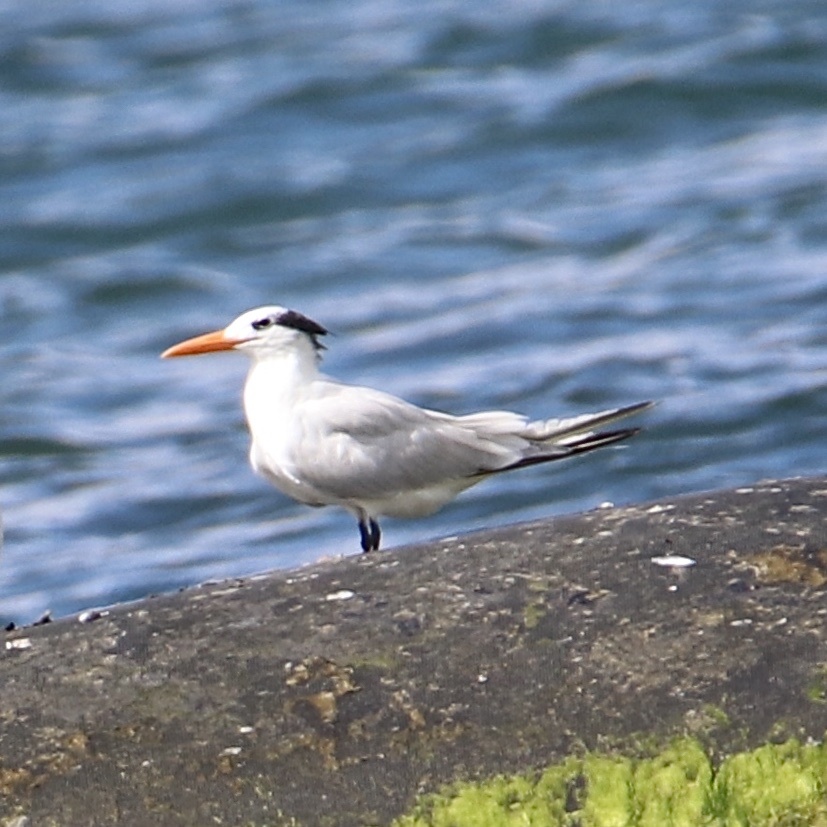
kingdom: Animalia
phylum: Chordata
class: Aves
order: Charadriiformes
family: Laridae
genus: Thalasseus
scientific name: Thalasseus maximus
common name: Royal tern
